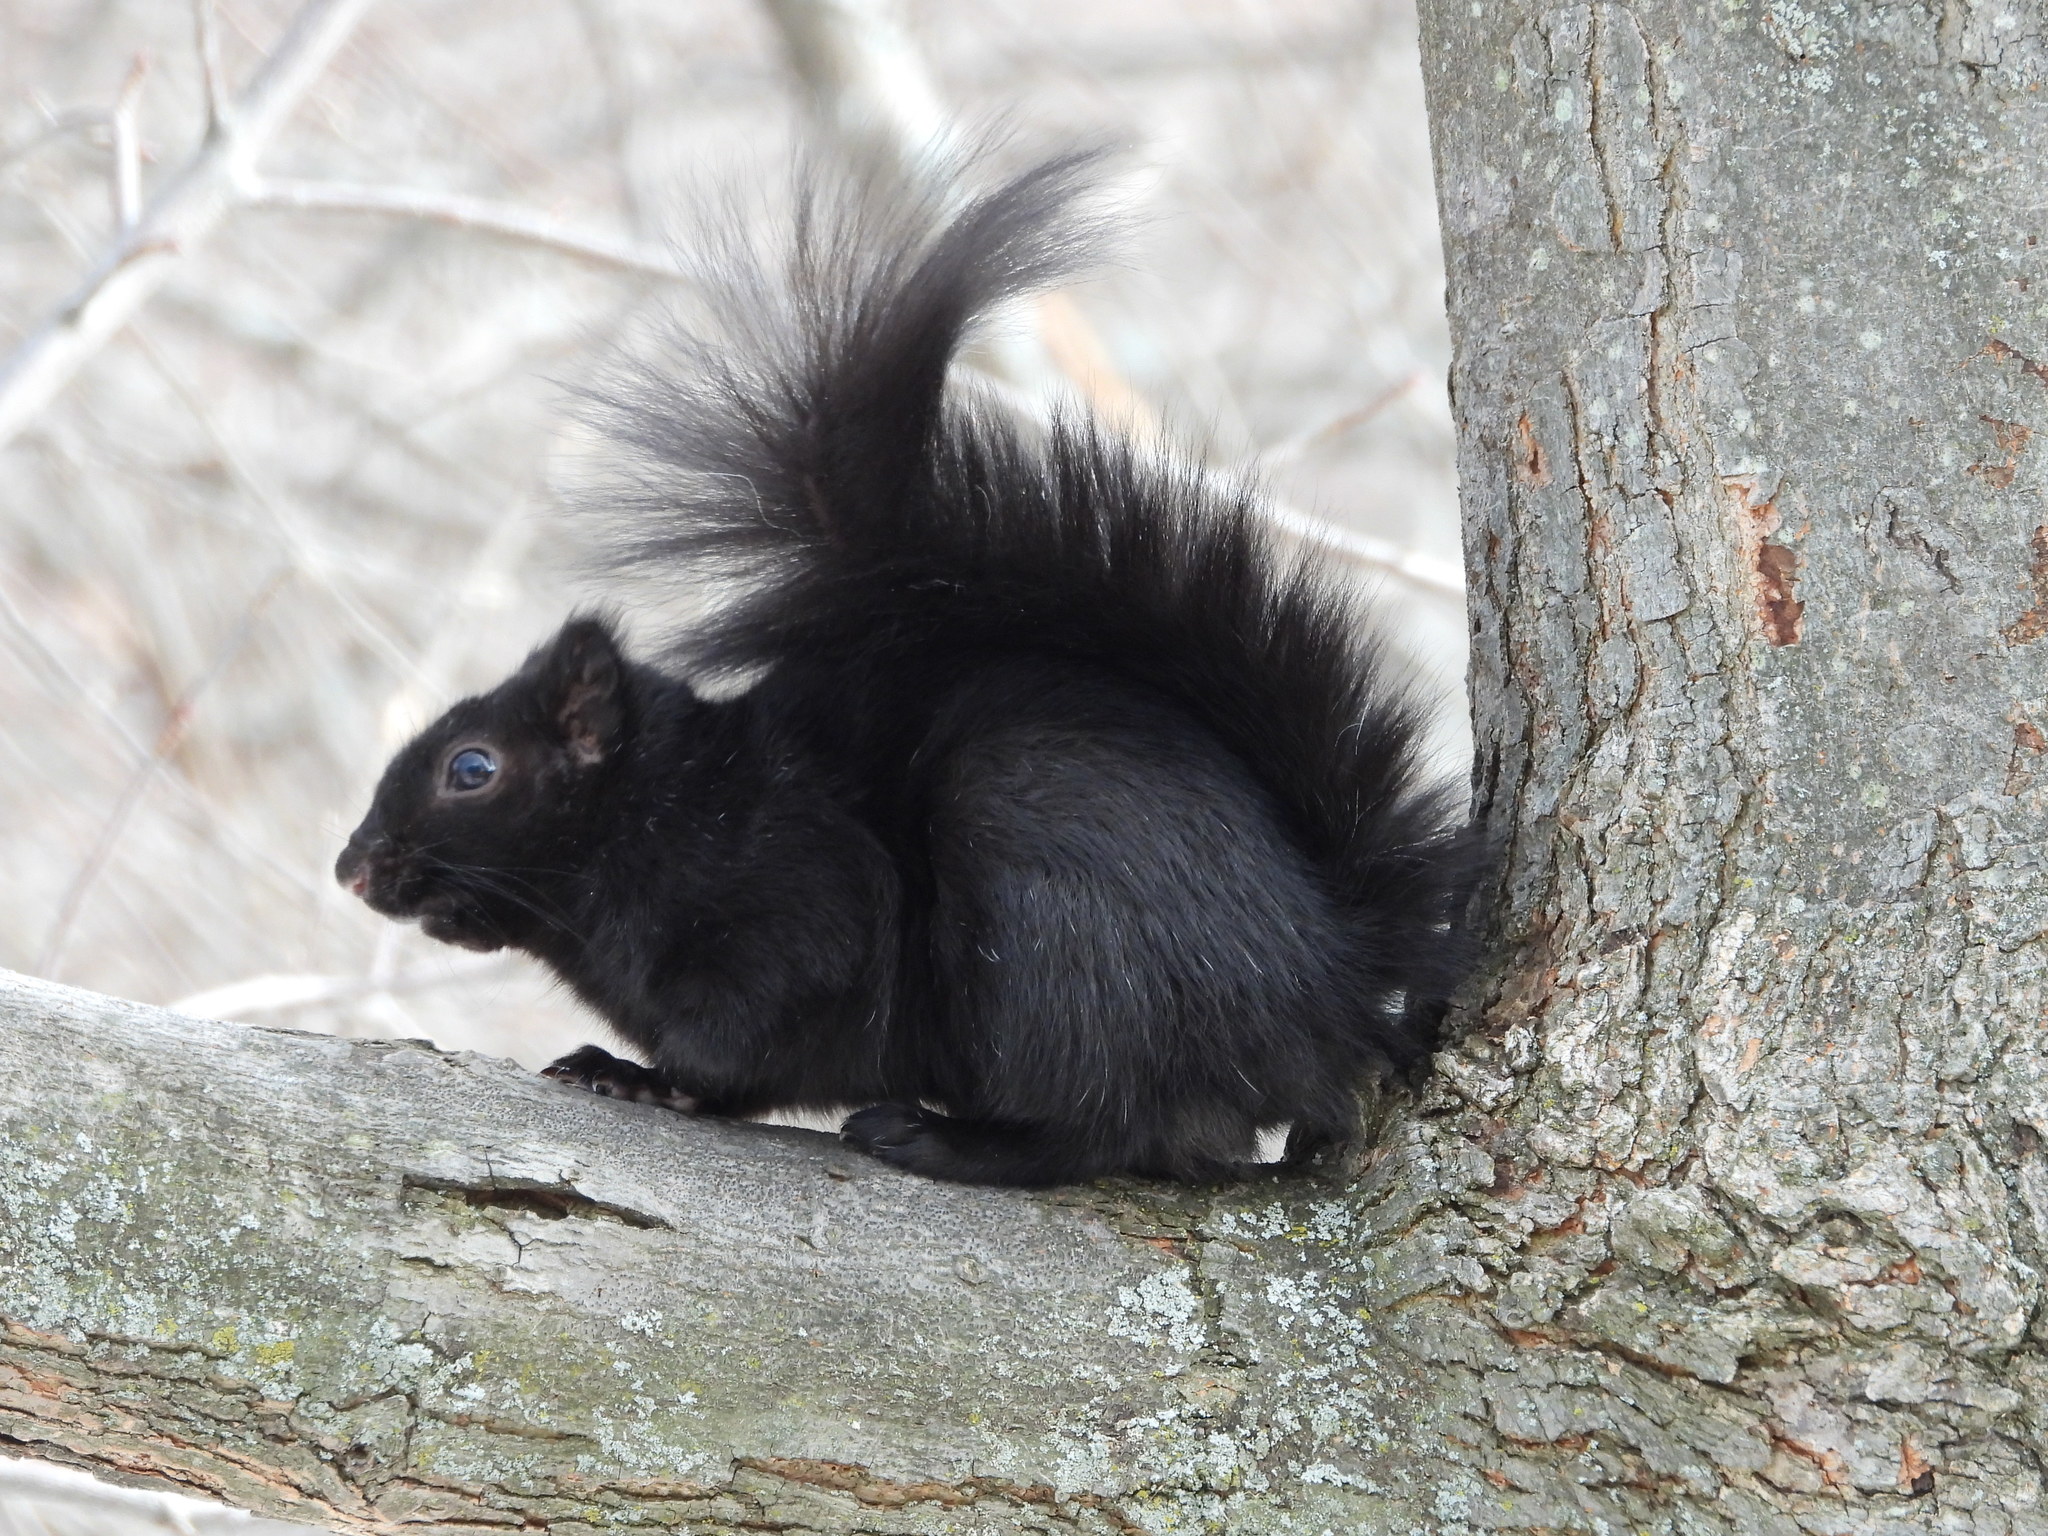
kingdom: Animalia
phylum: Chordata
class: Mammalia
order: Rodentia
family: Sciuridae
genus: Sciurus
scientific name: Sciurus carolinensis
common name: Eastern gray squirrel
